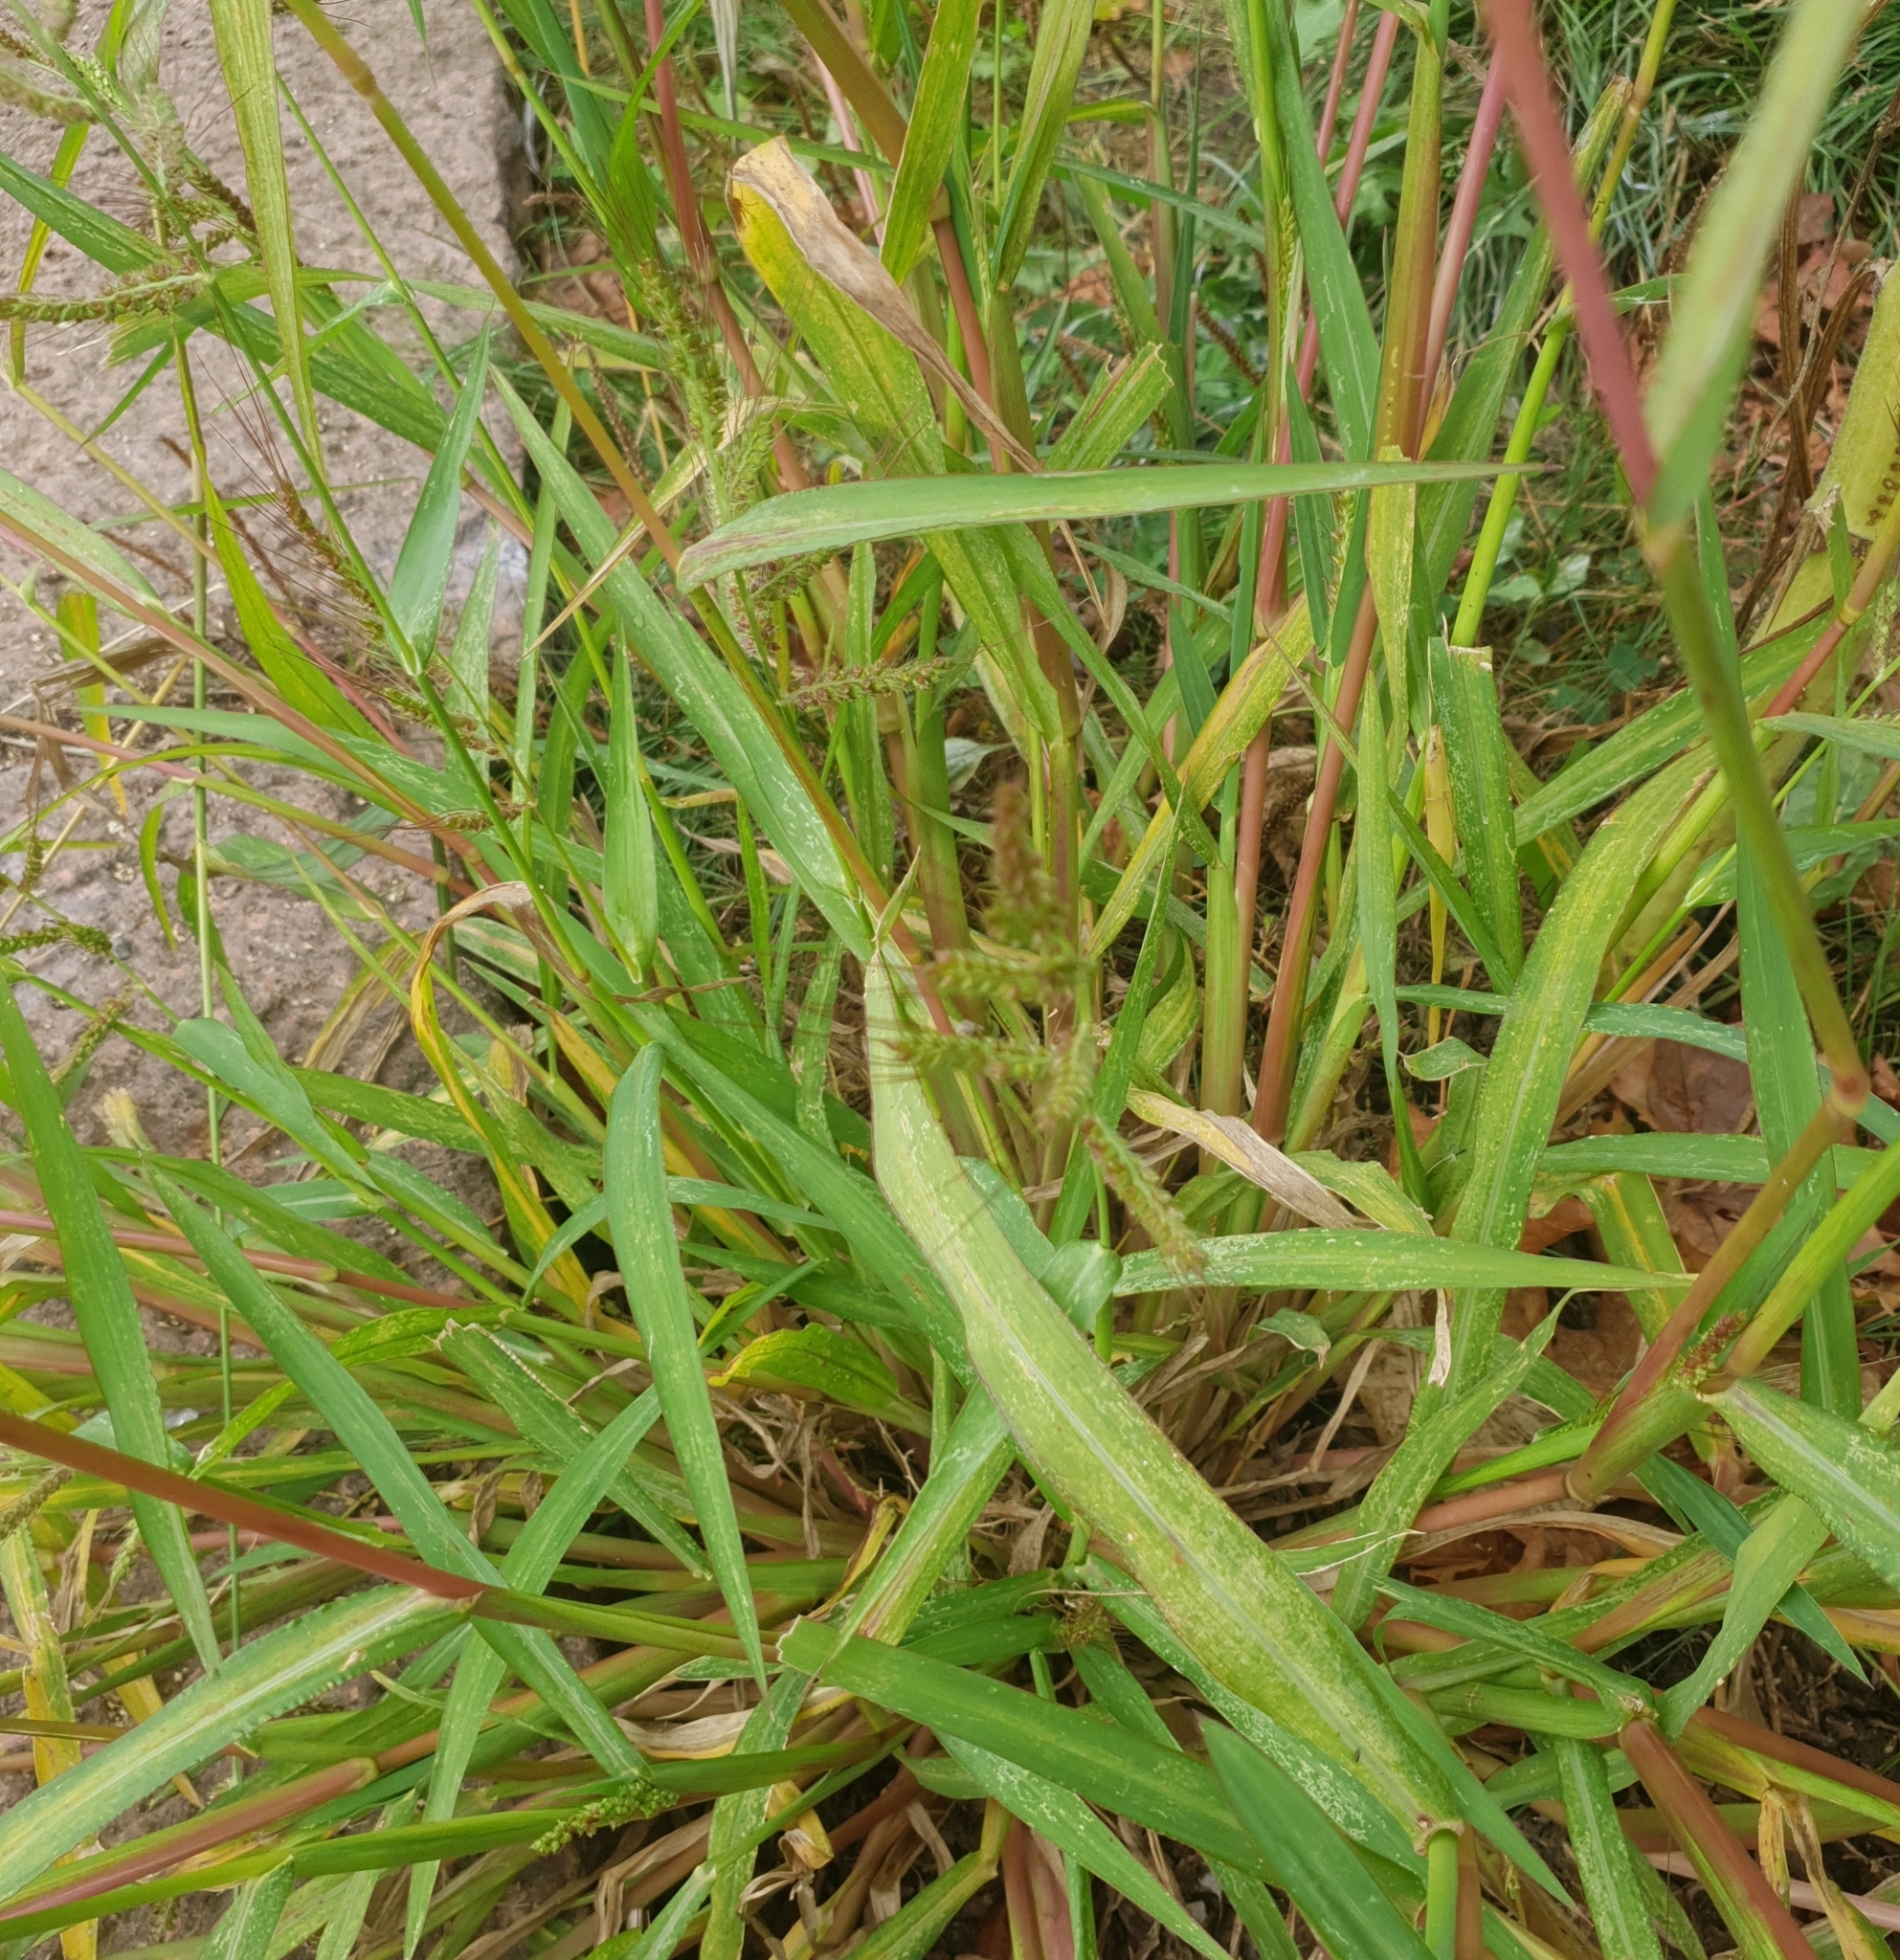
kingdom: Plantae
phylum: Tracheophyta
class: Liliopsida
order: Poales
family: Poaceae
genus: Echinochloa
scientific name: Echinochloa crus-galli
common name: Cockspur
